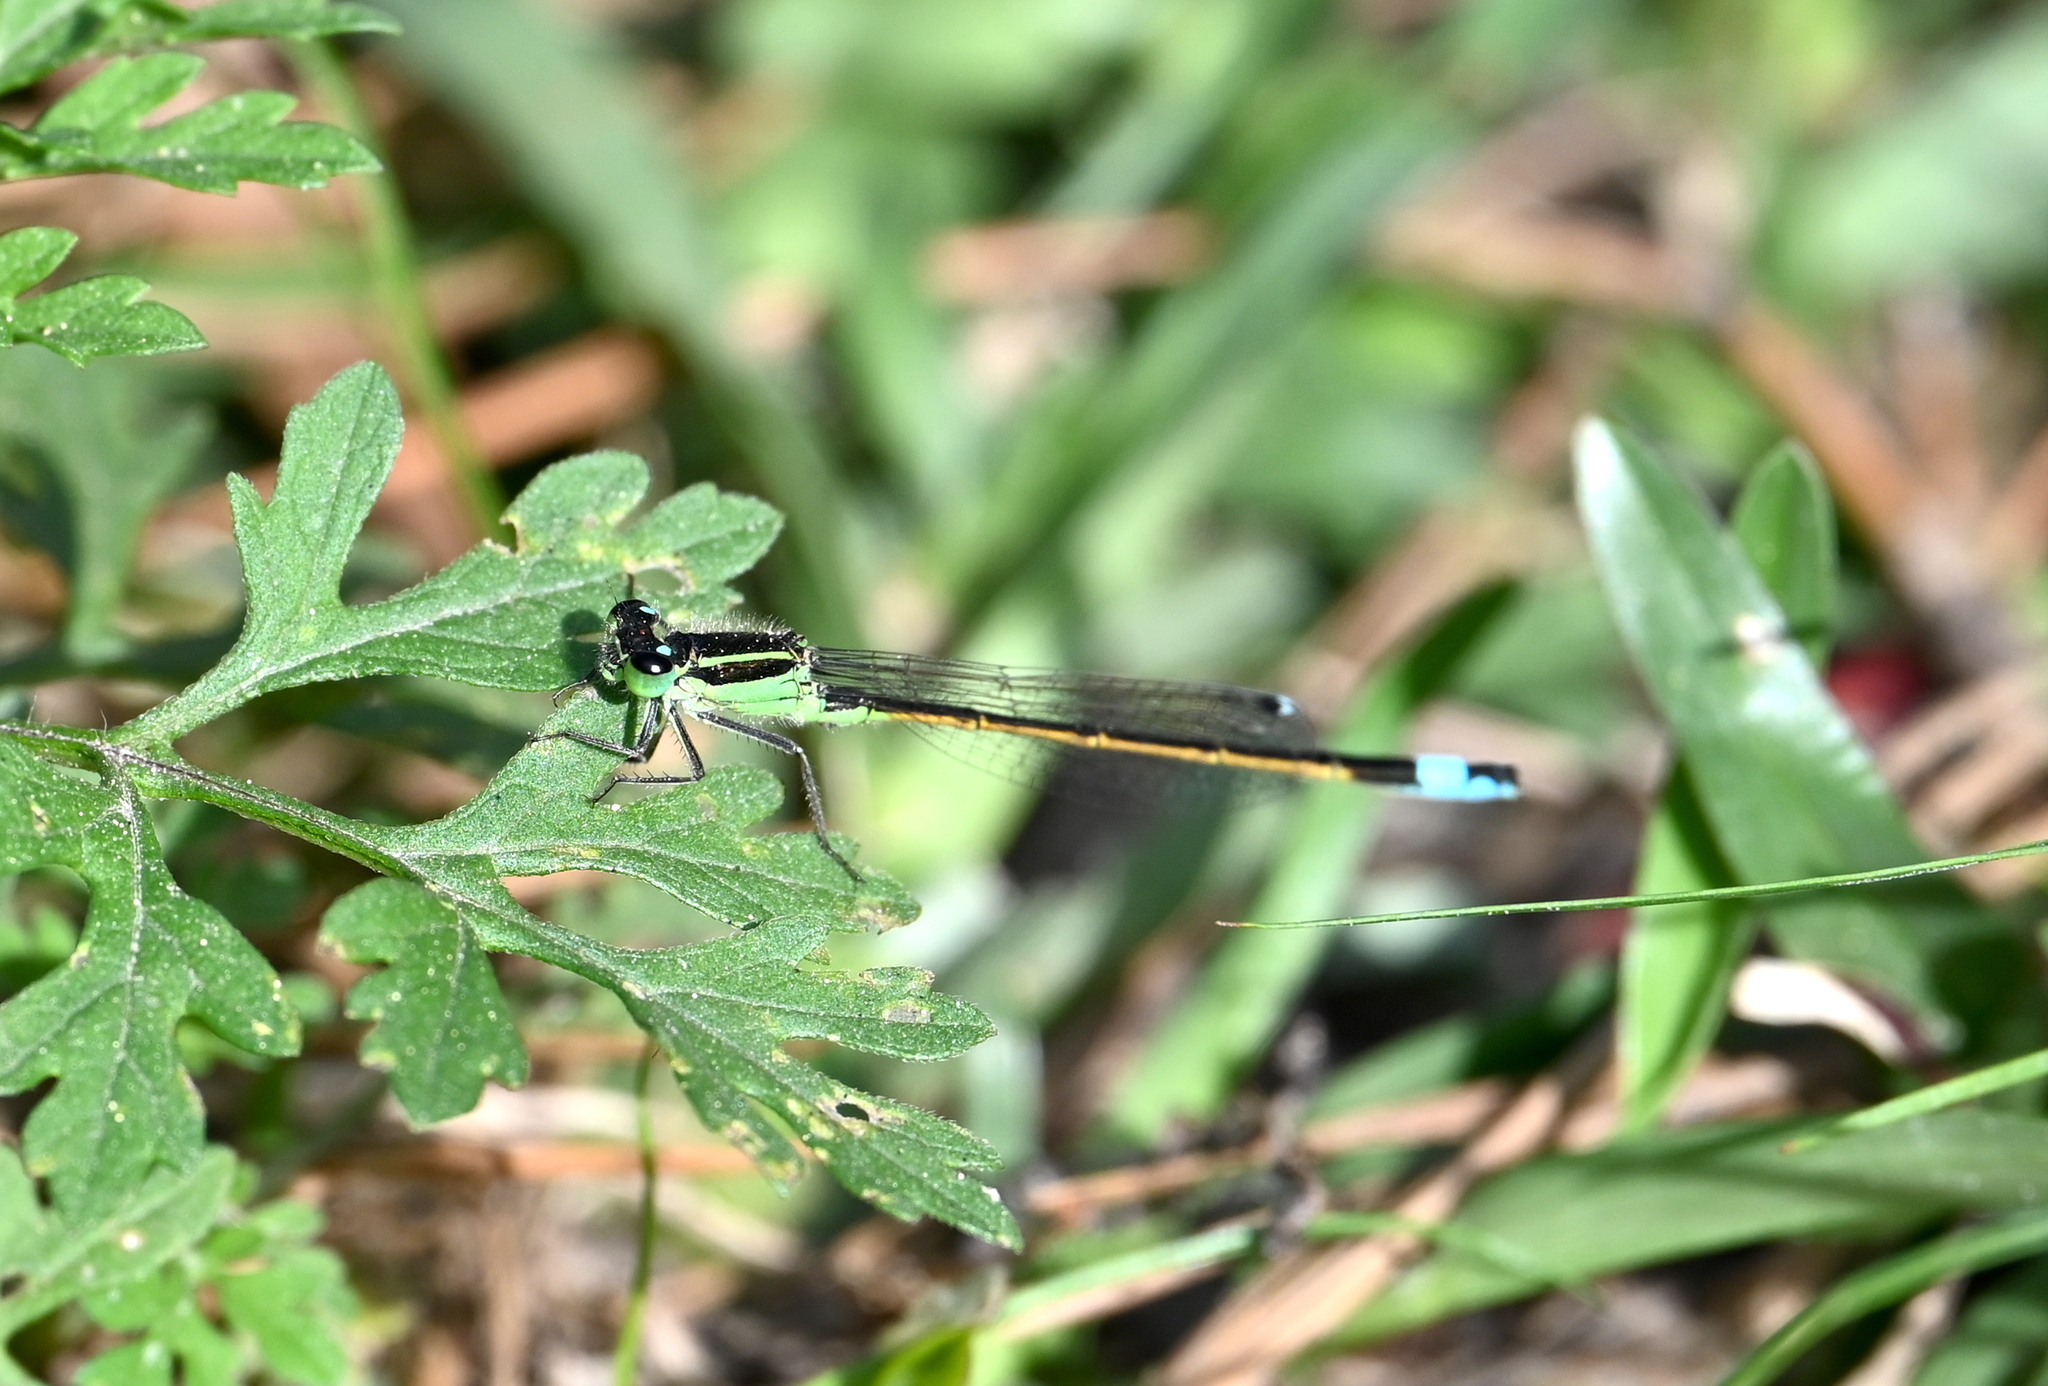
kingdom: Animalia
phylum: Arthropoda
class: Insecta
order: Odonata
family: Coenagrionidae
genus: Ischnura
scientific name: Ischnura ramburii
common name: Rambur's forktail
